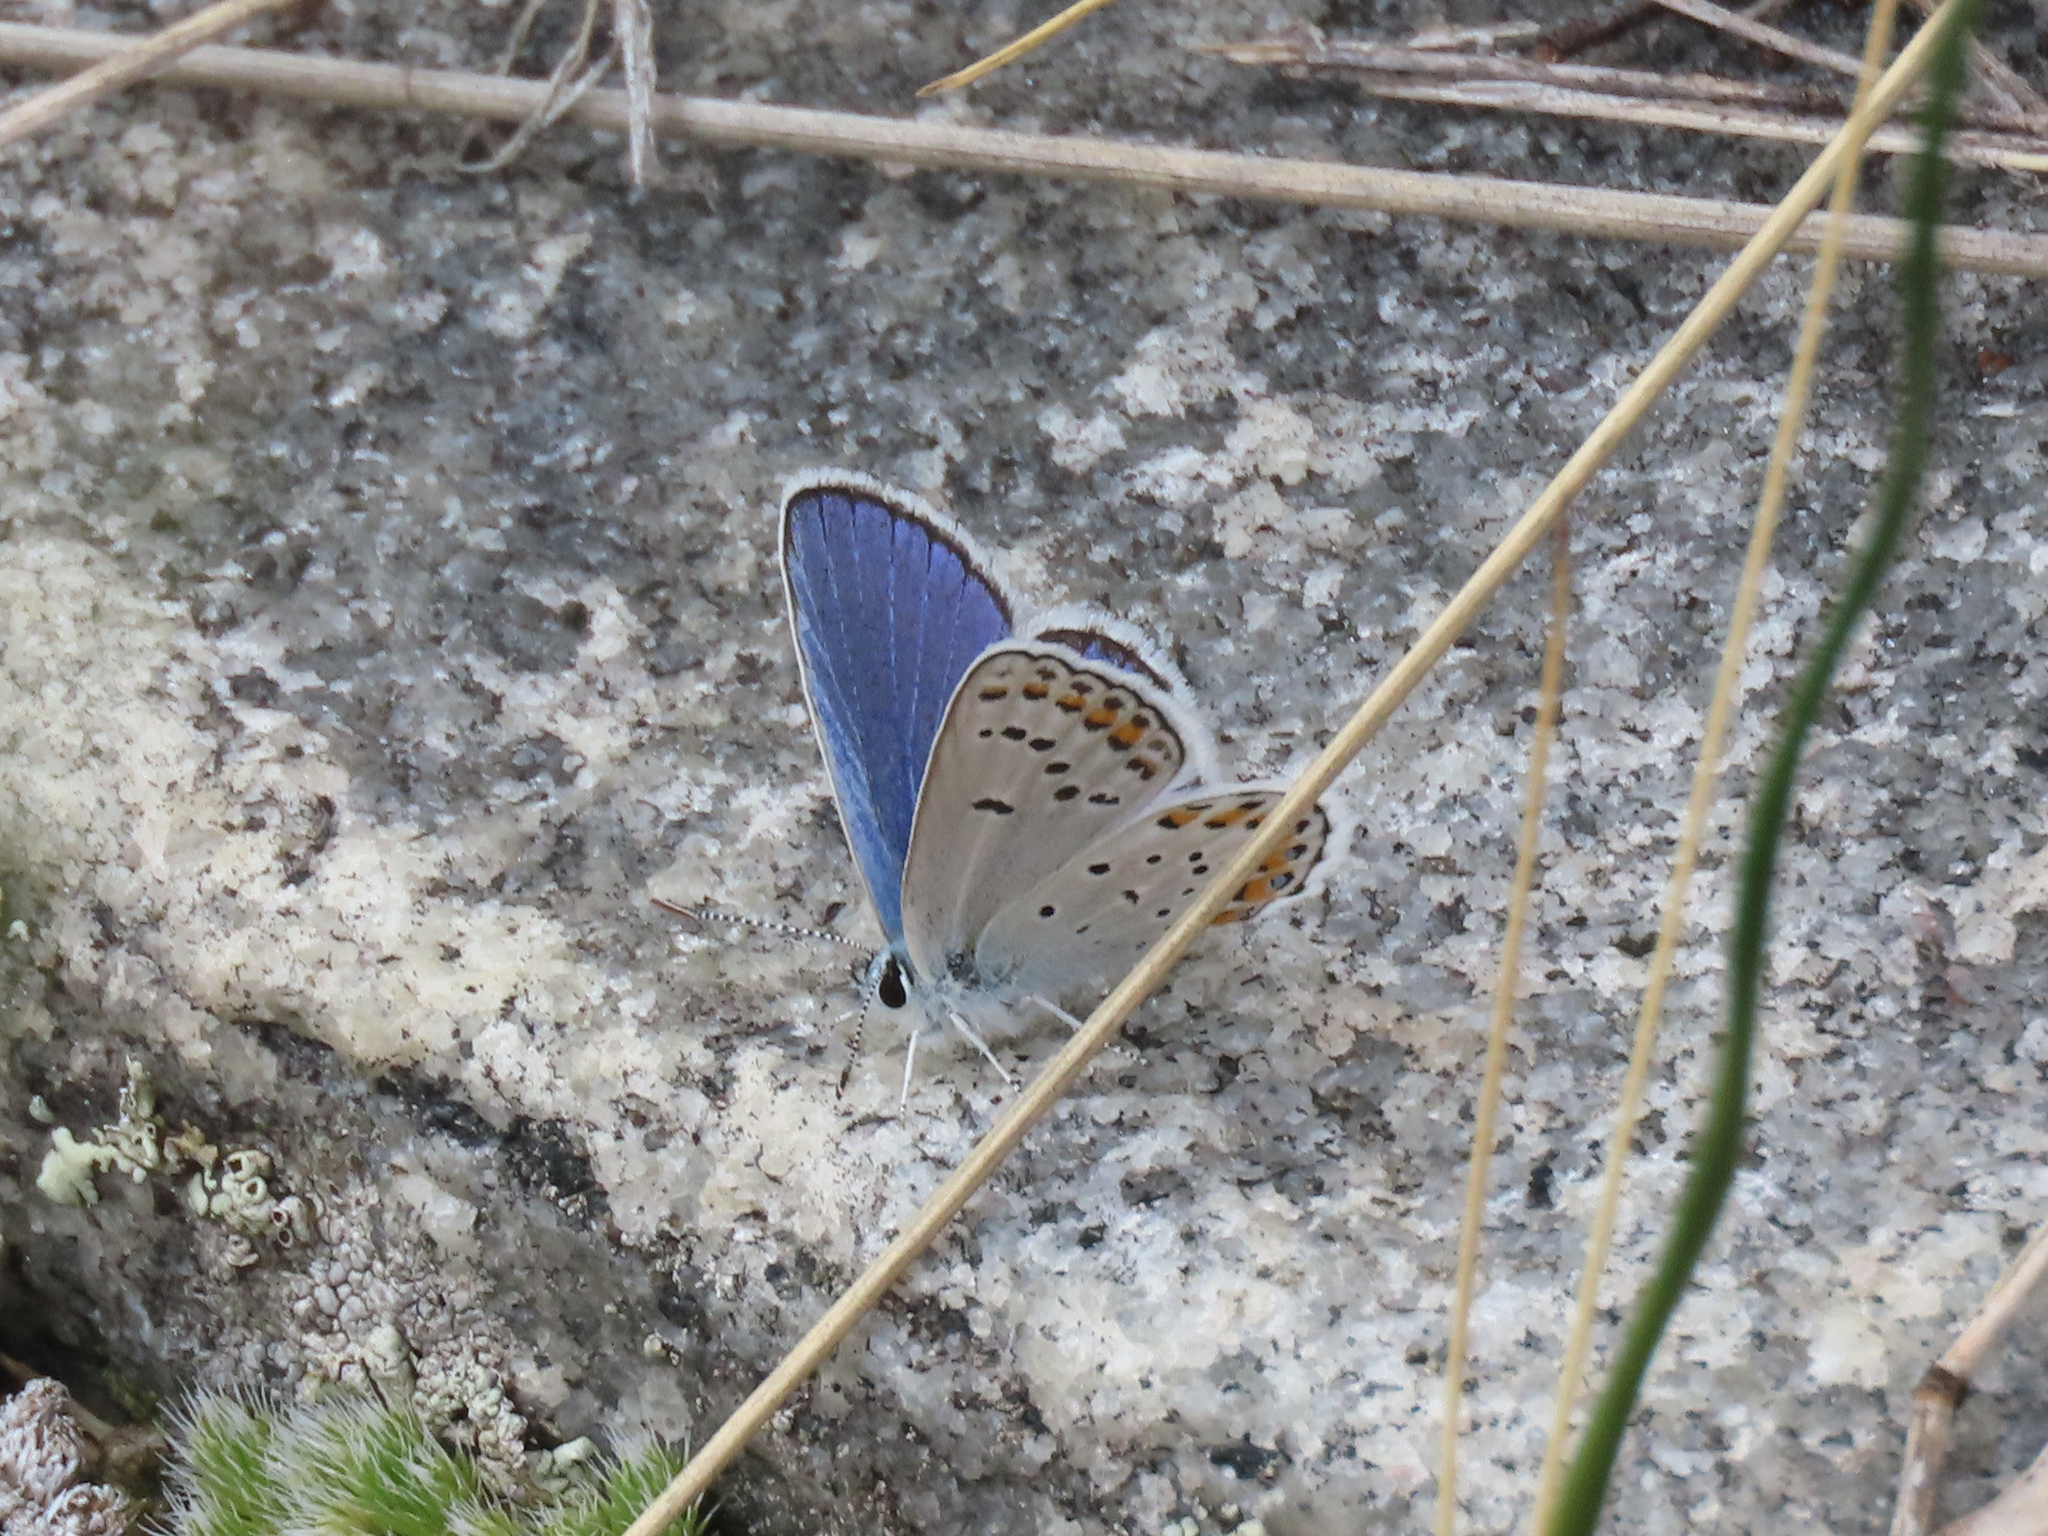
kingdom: Animalia
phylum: Arthropoda
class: Insecta
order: Lepidoptera
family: Lycaenidae
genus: Lycaeides
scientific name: Lycaeides melissa
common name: Melissa blue
